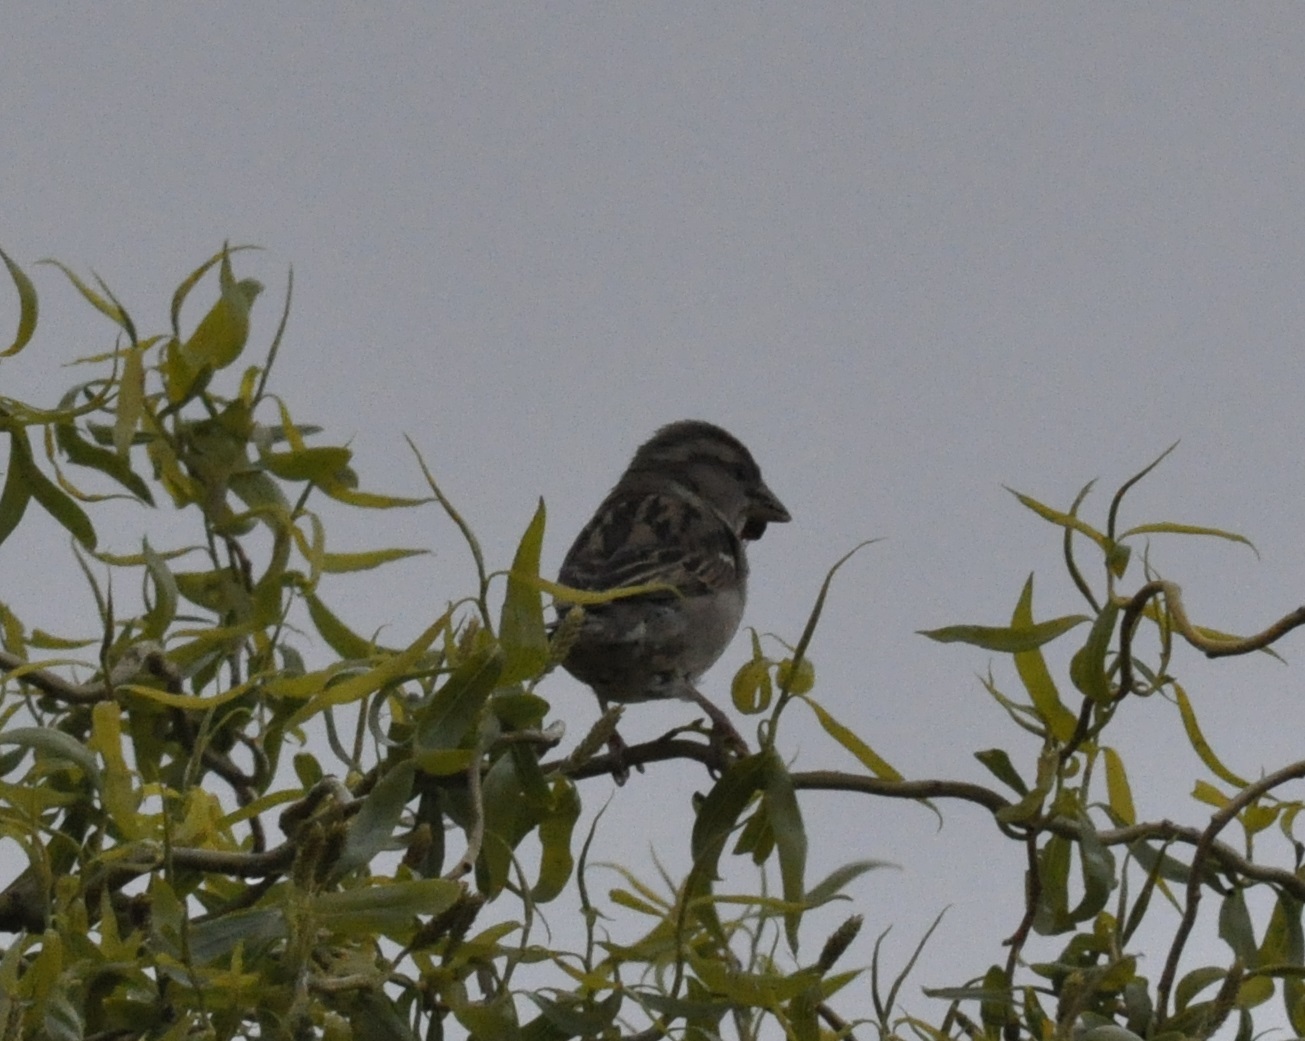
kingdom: Animalia
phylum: Chordata
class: Aves
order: Passeriformes
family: Passeridae
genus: Passer
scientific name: Passer domesticus
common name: House sparrow
